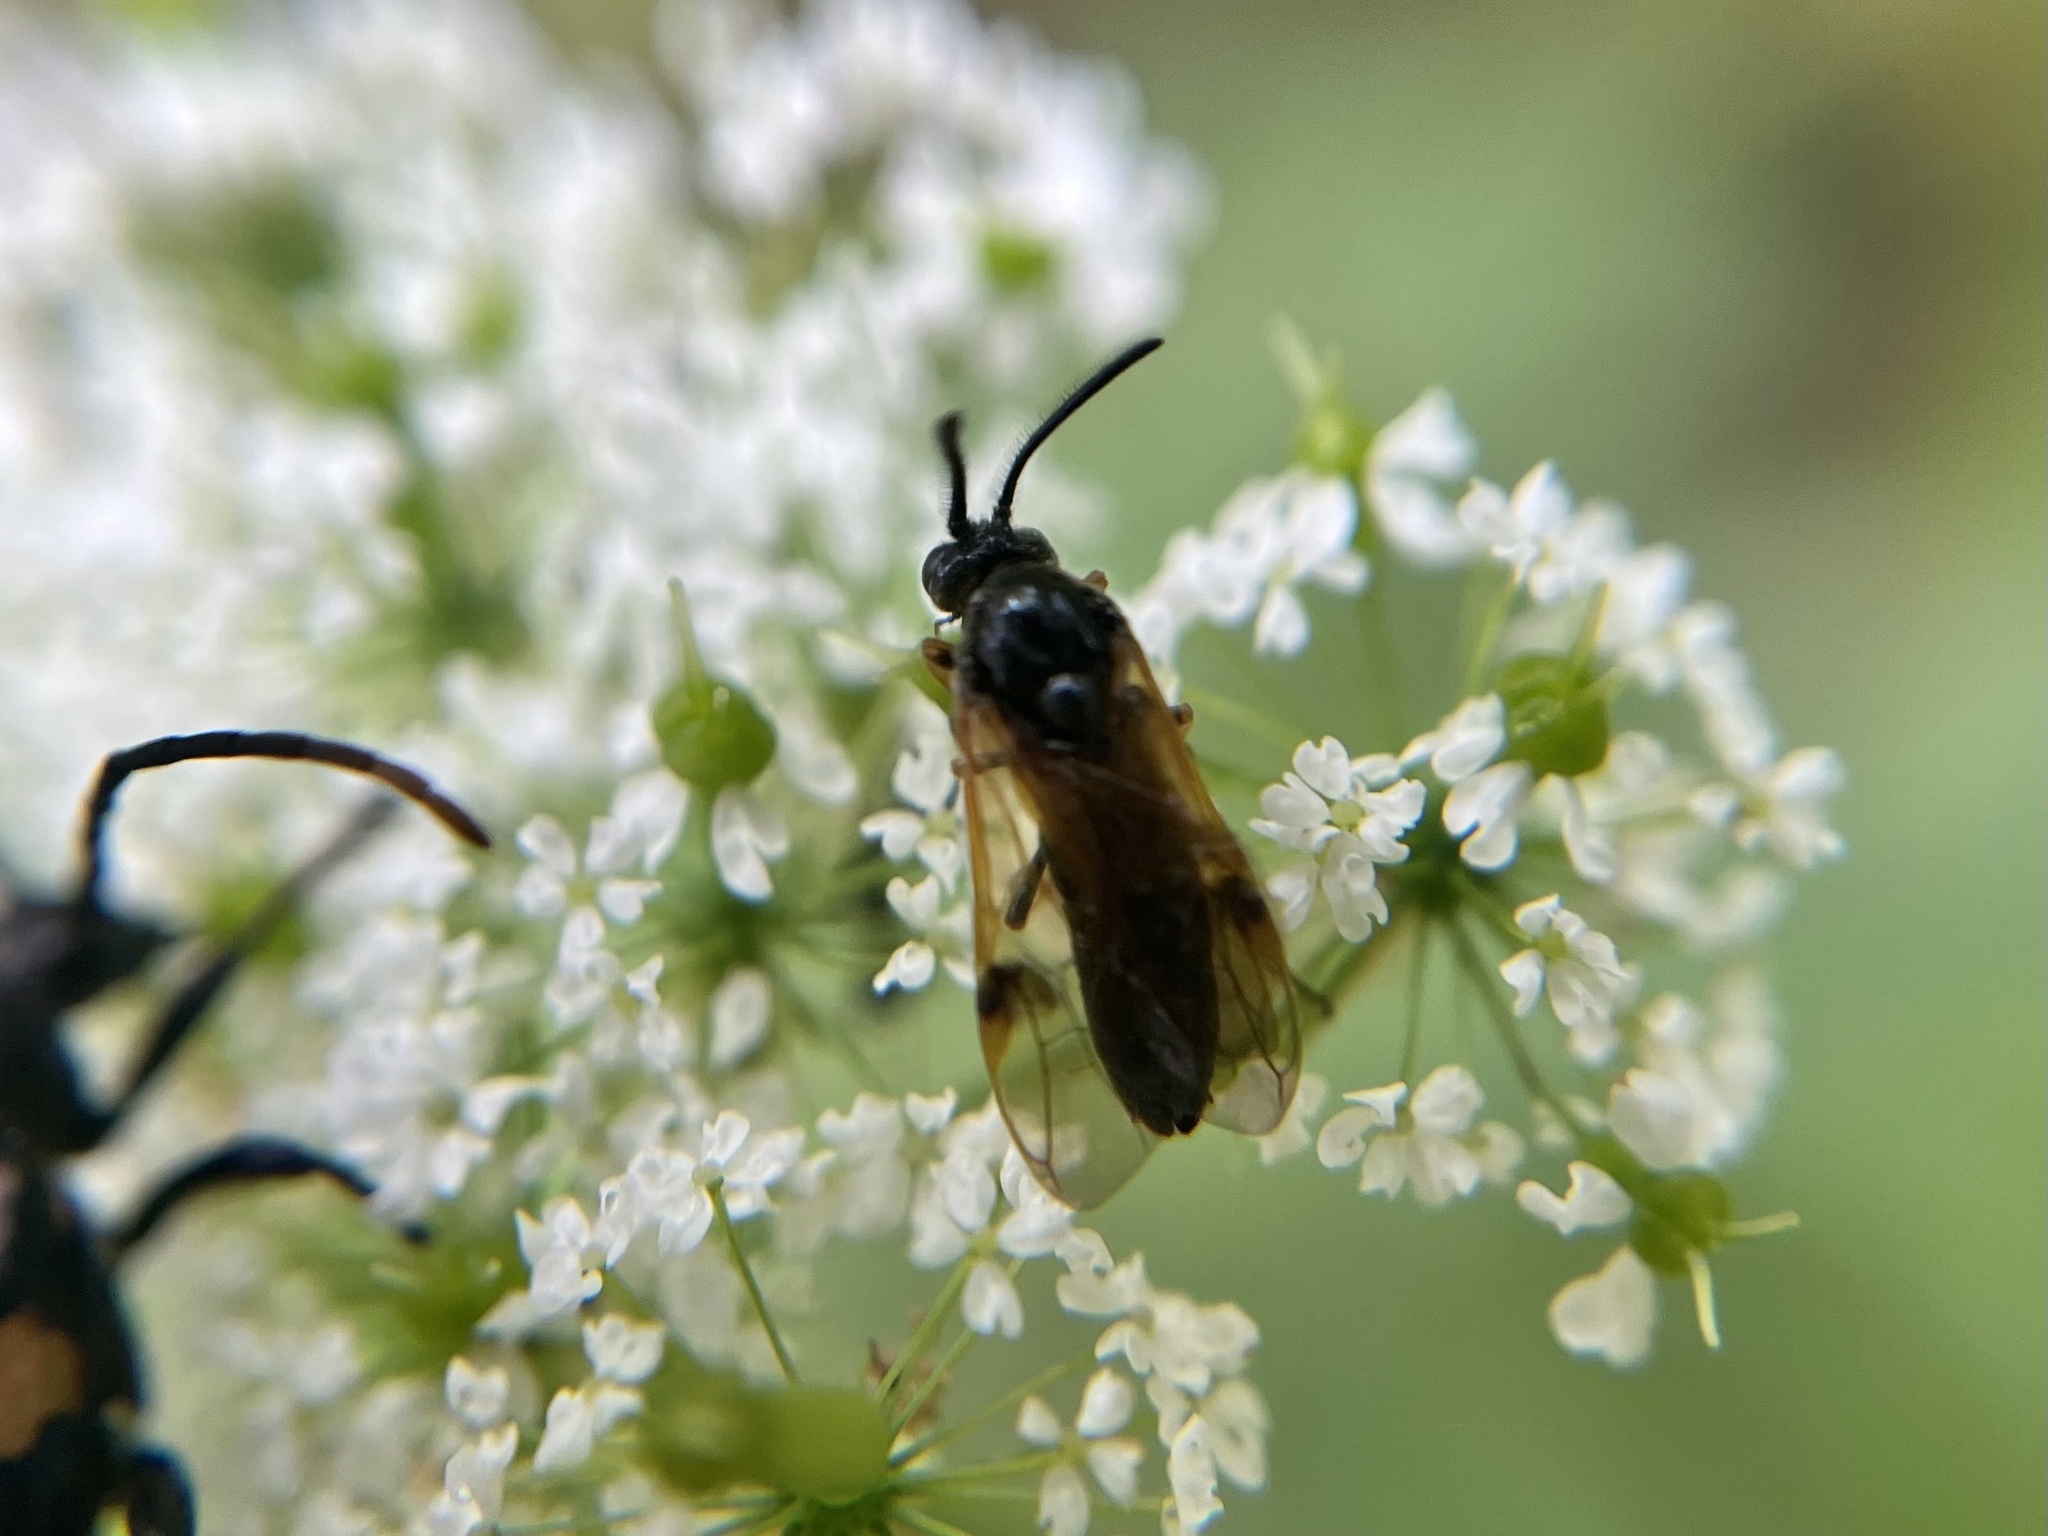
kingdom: Animalia
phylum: Arthropoda
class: Insecta
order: Hymenoptera
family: Argidae
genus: Arge
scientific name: Arge ustulata
